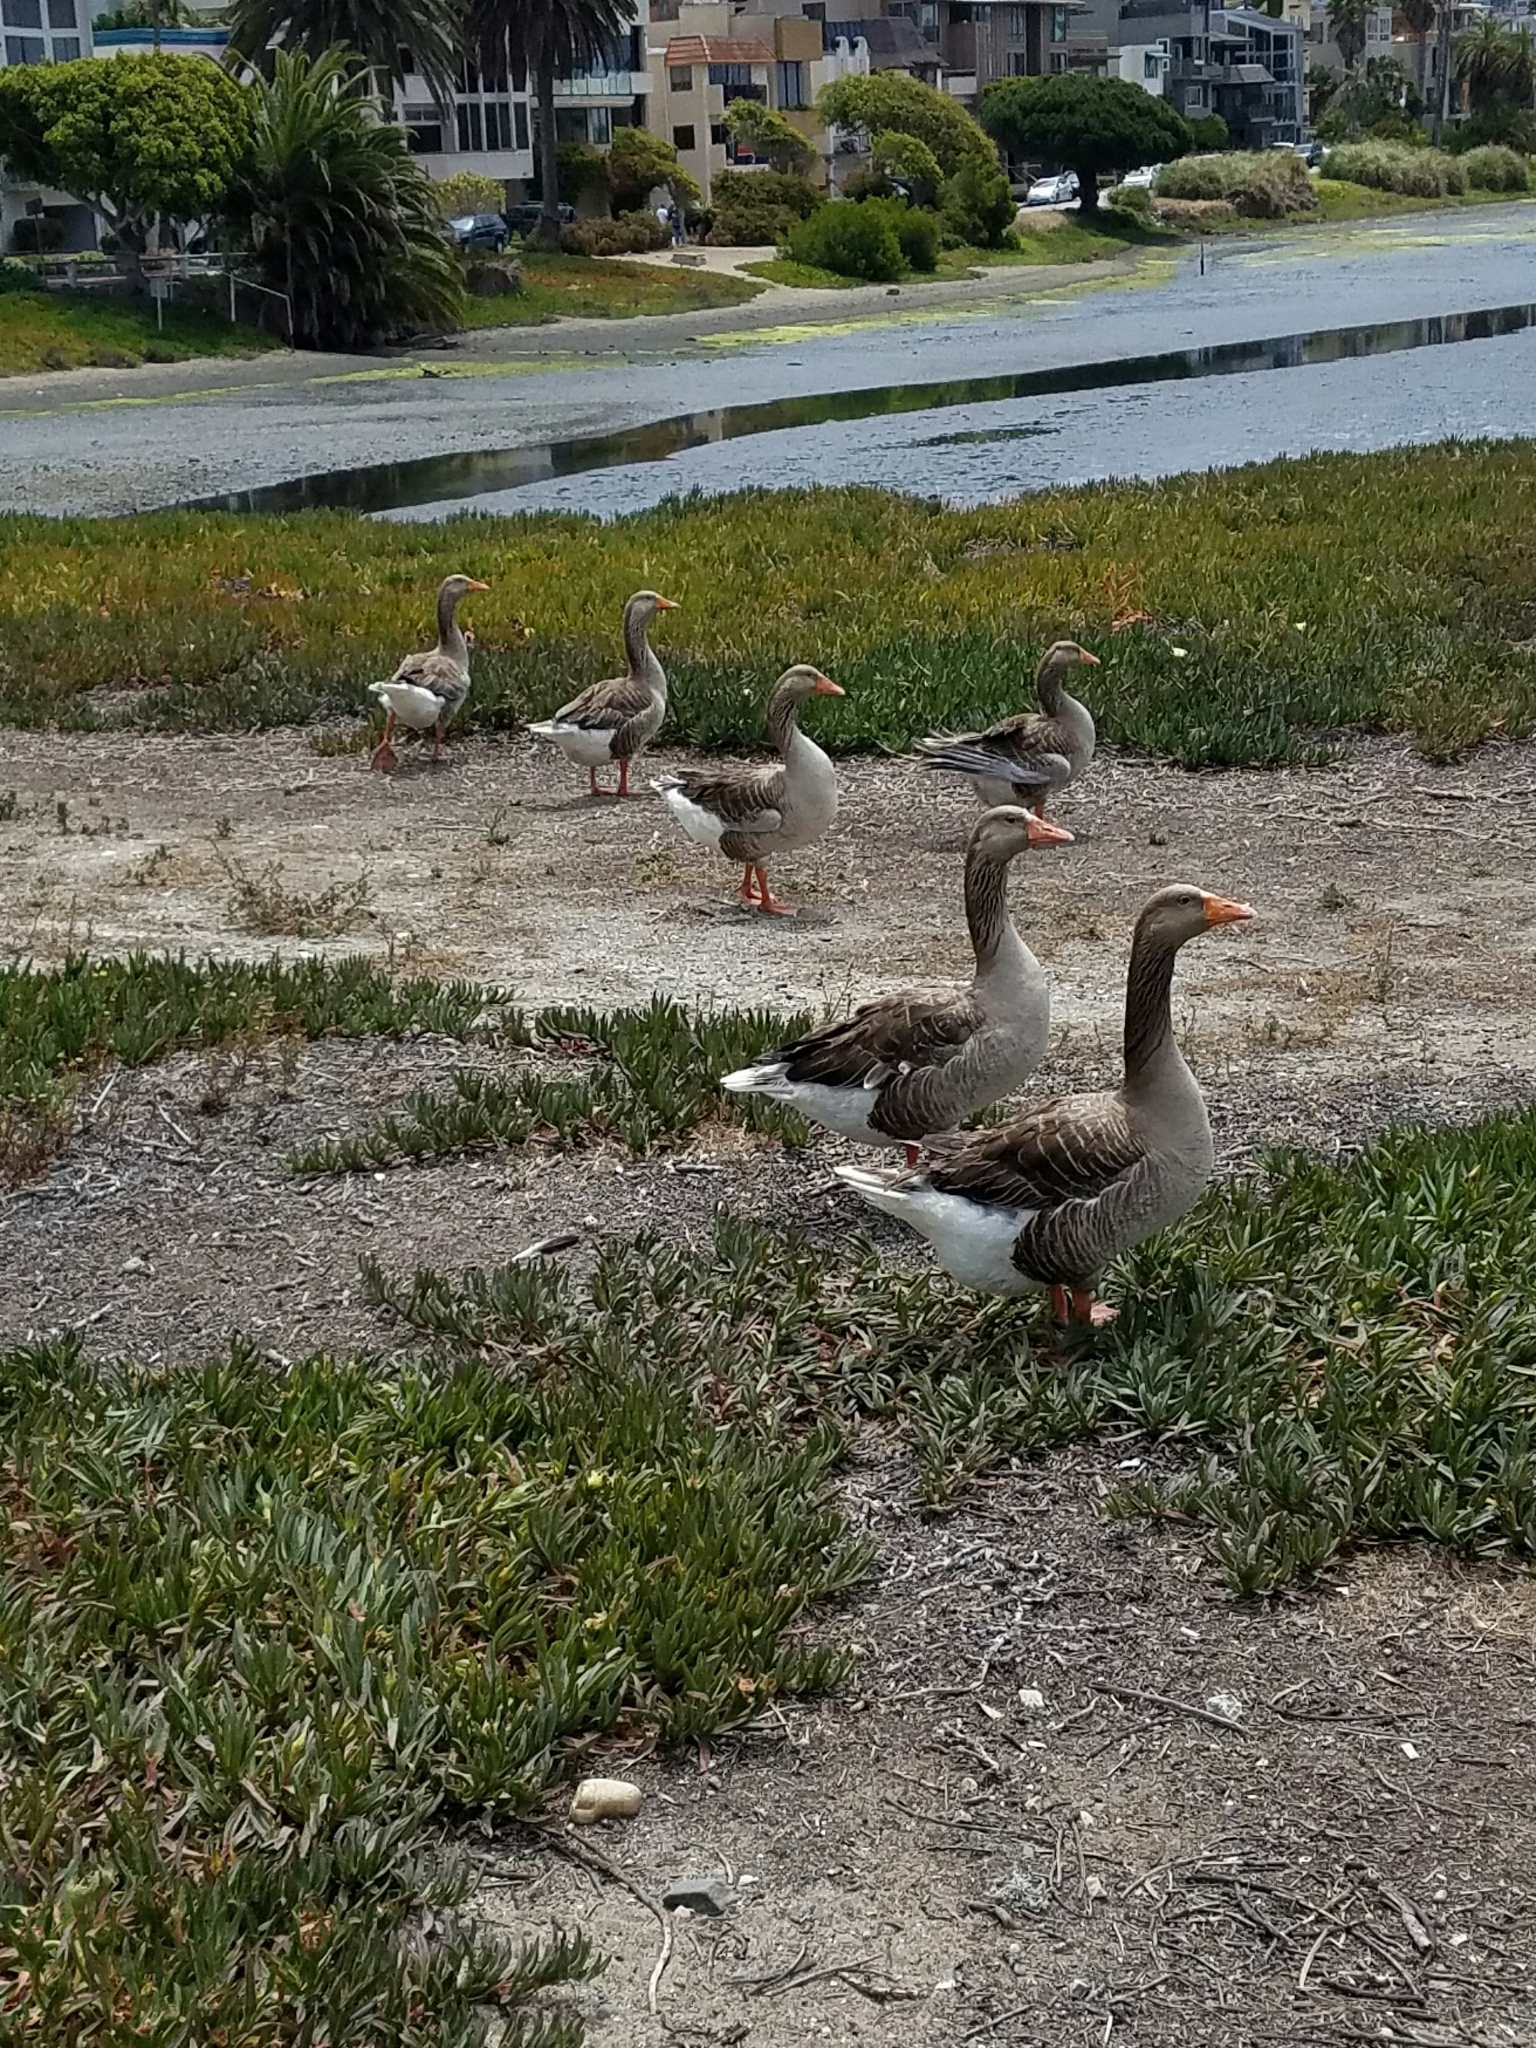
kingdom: Animalia
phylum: Chordata
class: Aves
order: Anseriformes
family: Anatidae
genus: Anser
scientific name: Anser anser
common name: Greylag goose
